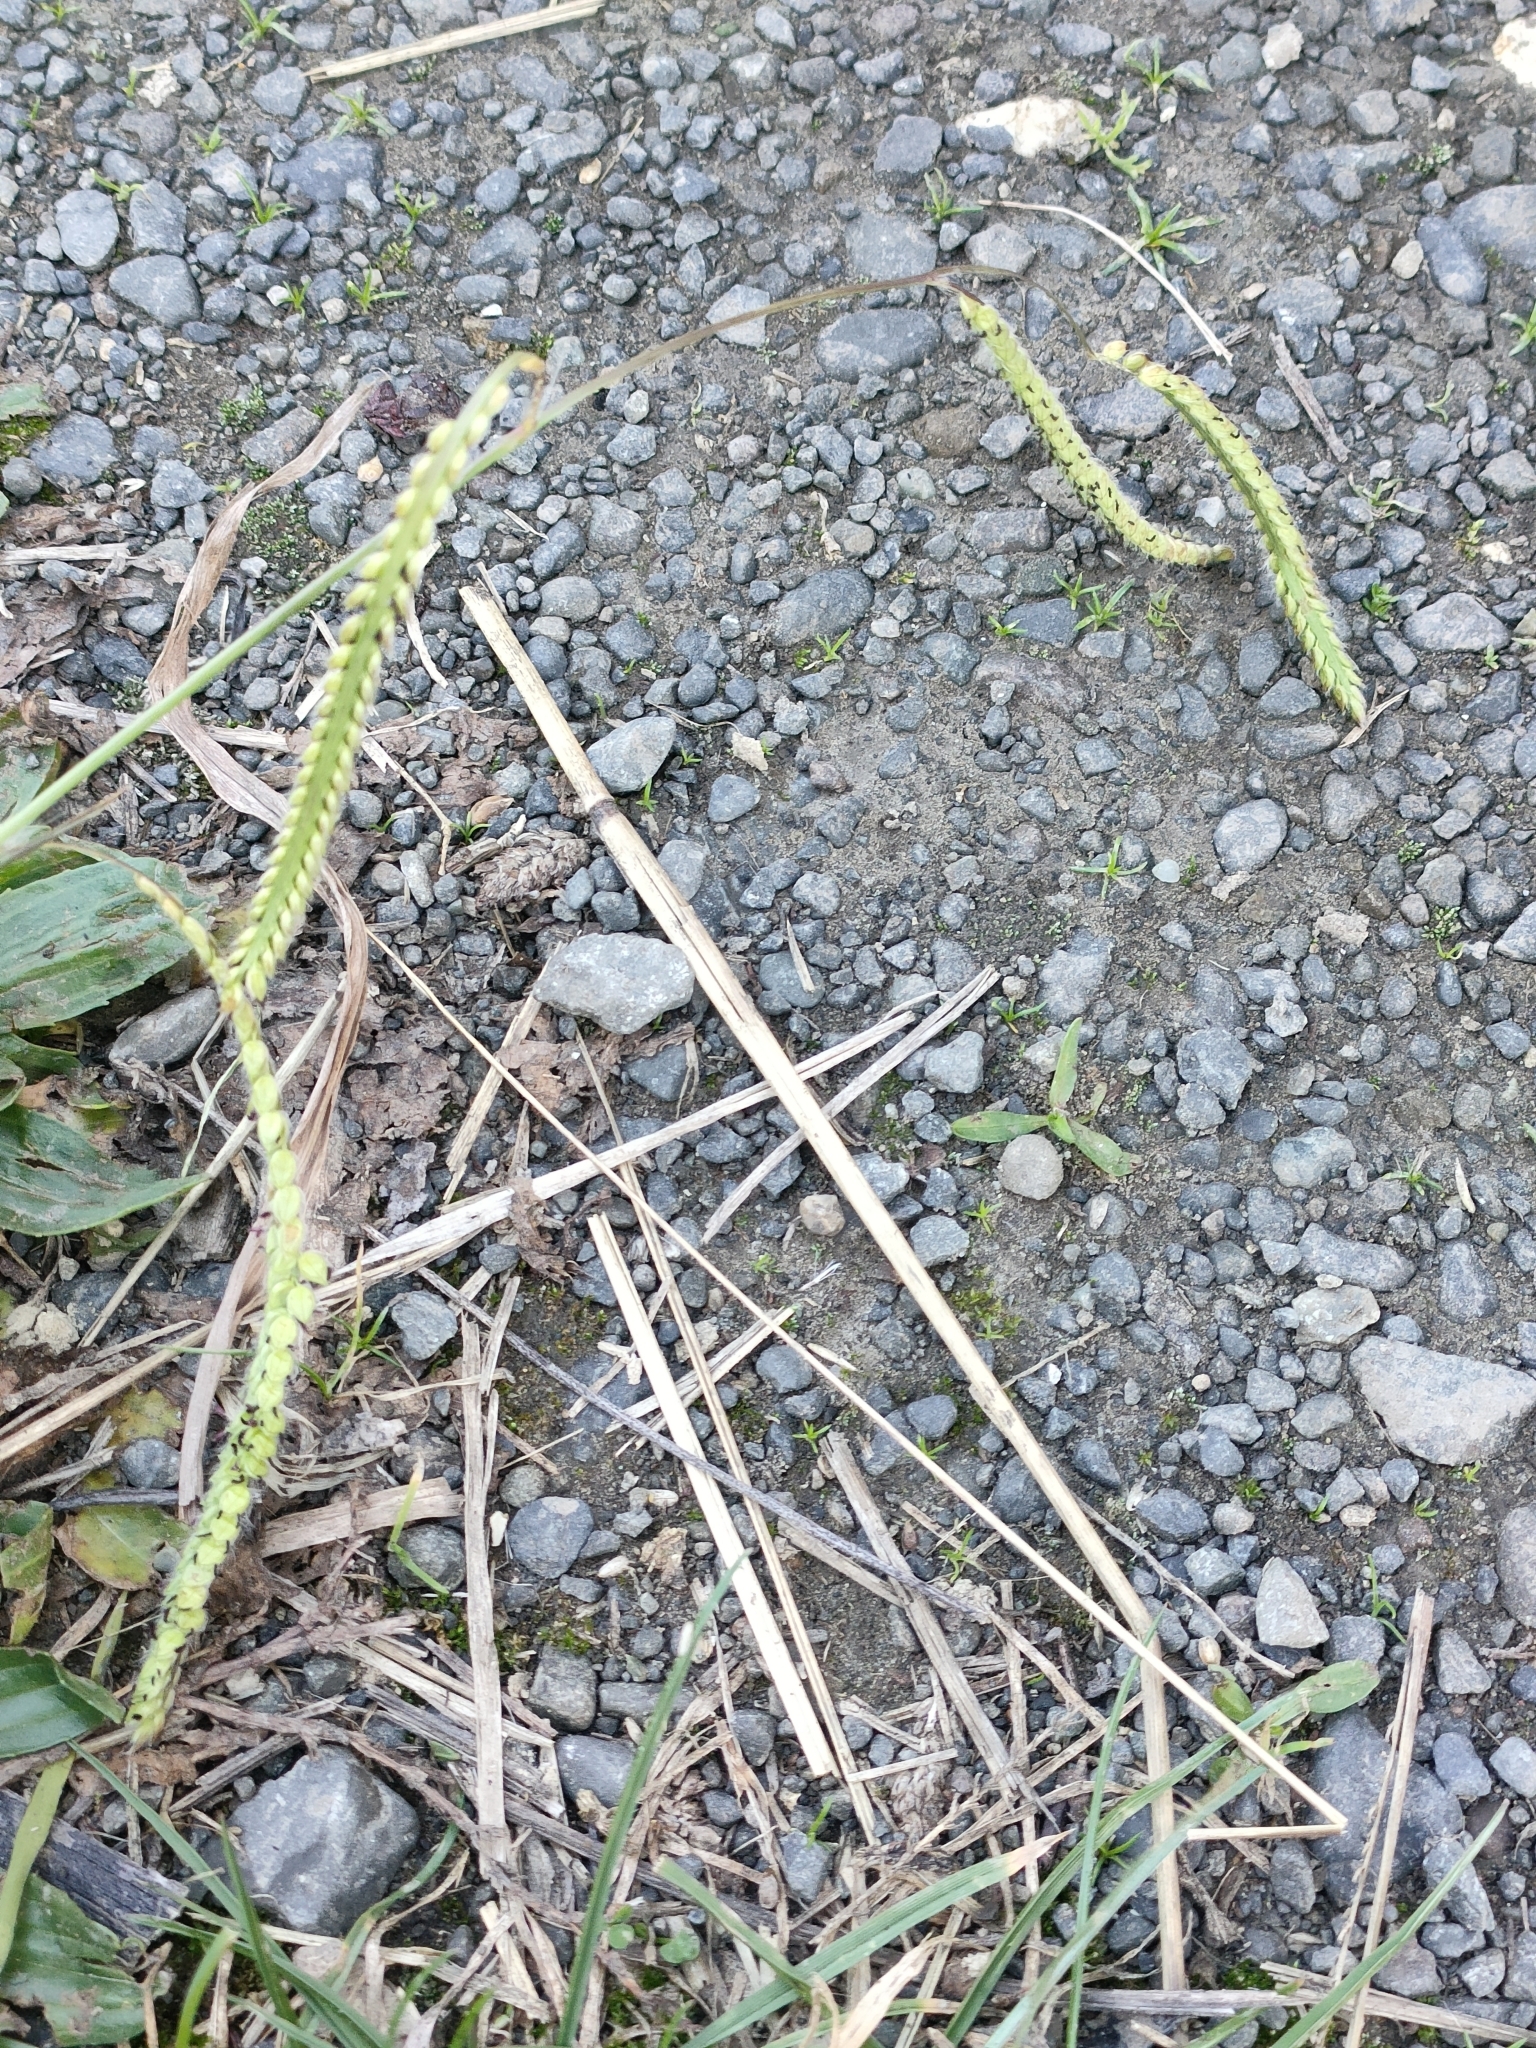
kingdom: Plantae
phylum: Tracheophyta
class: Liliopsida
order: Poales
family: Poaceae
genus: Paspalum
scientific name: Paspalum dilatatum
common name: Dallisgrass
